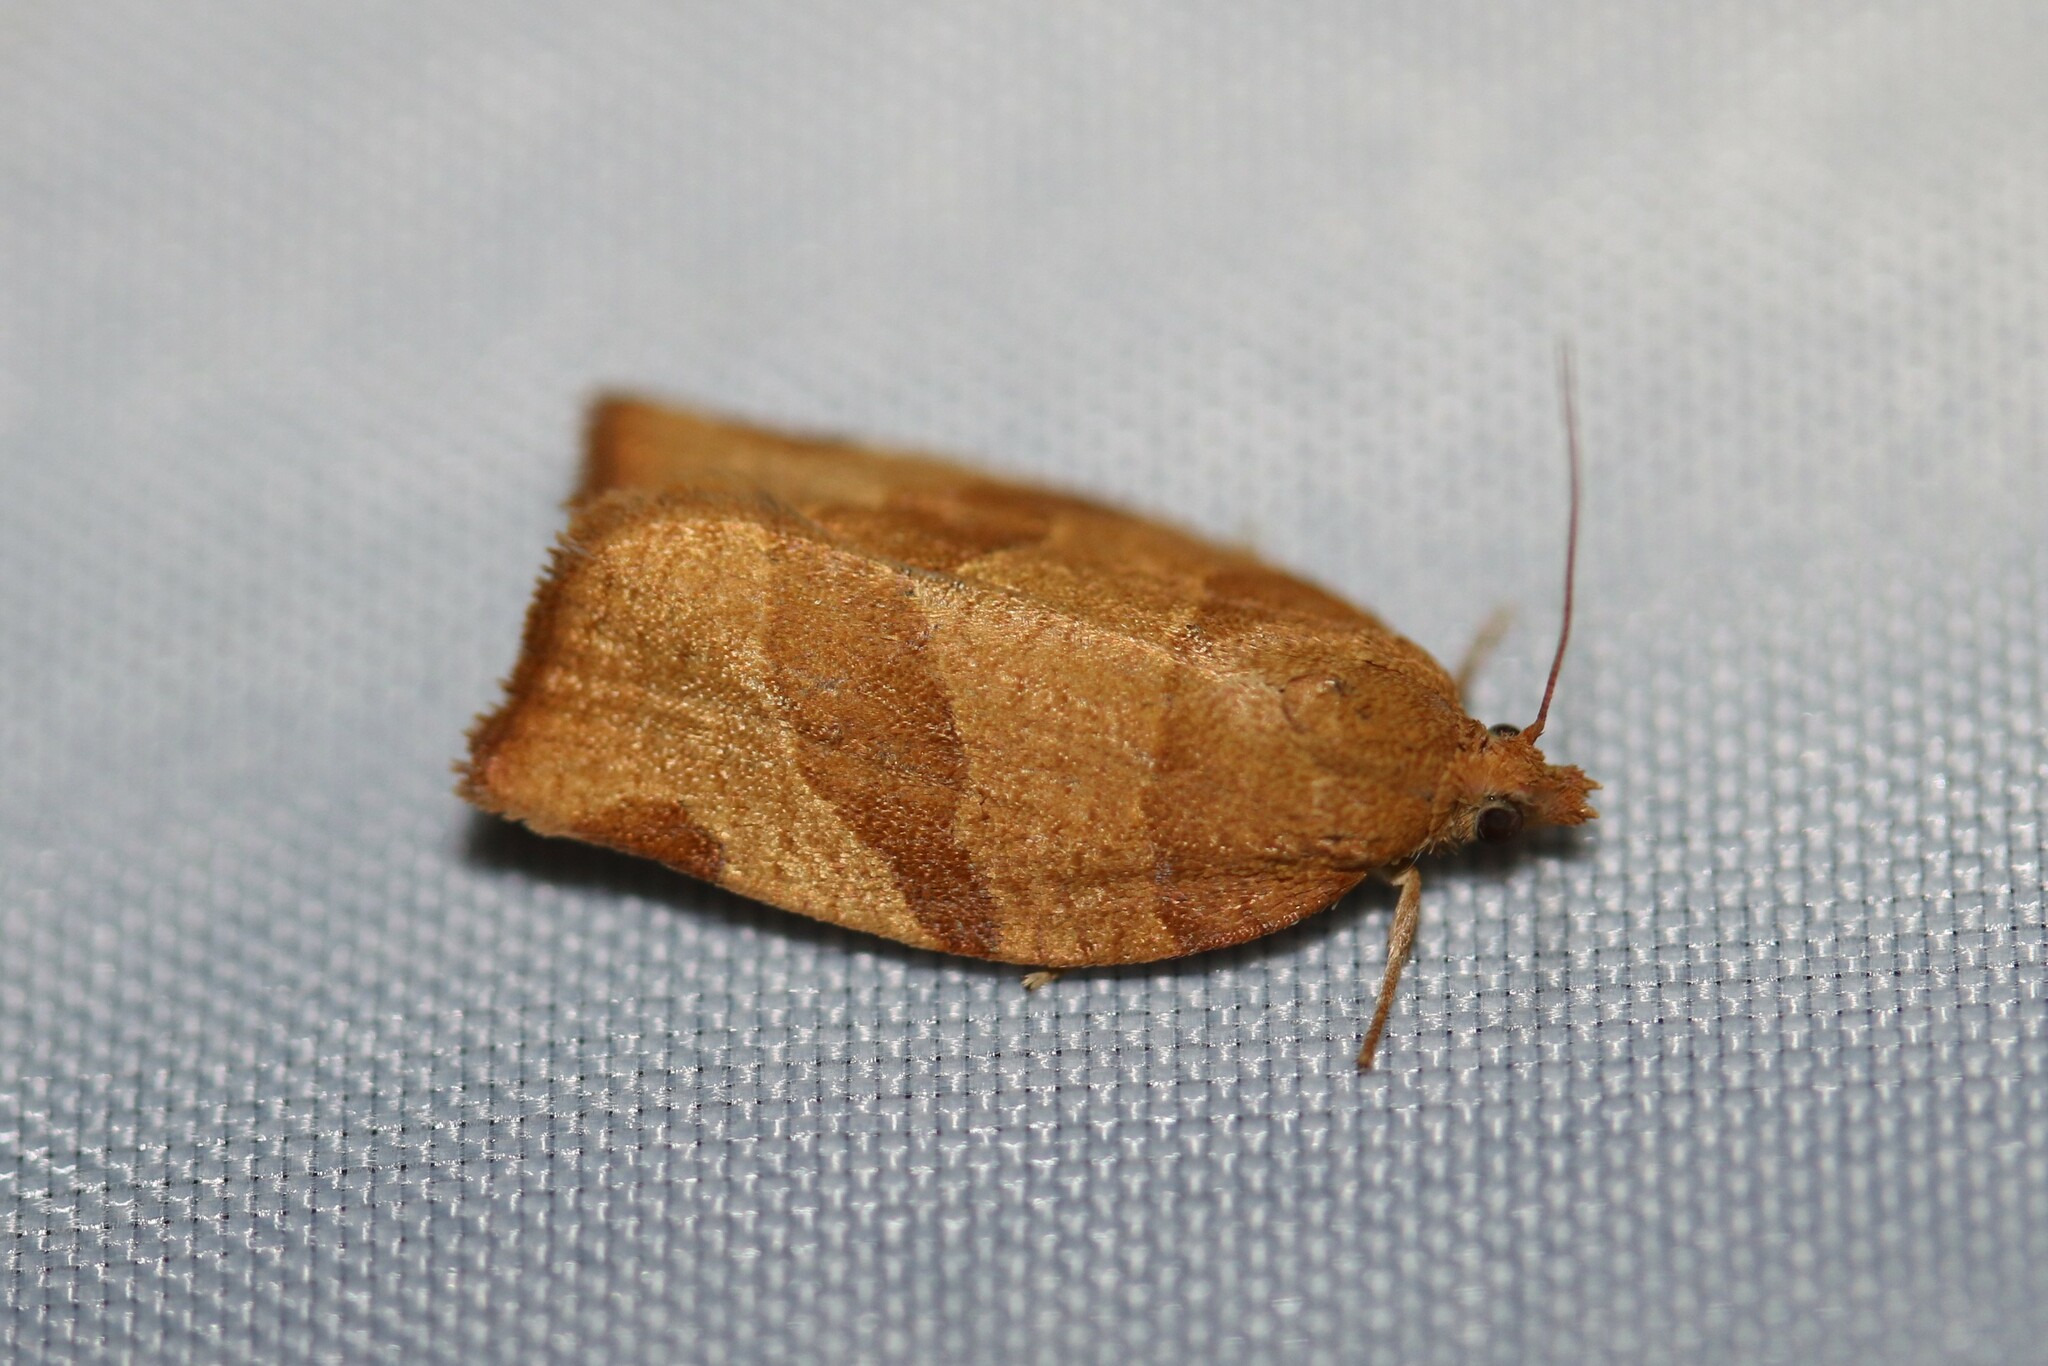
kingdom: Animalia
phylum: Arthropoda
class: Insecta
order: Lepidoptera
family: Tortricidae
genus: Pandemis
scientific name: Pandemis cerasana
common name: Barred fruit-tree tortrix
